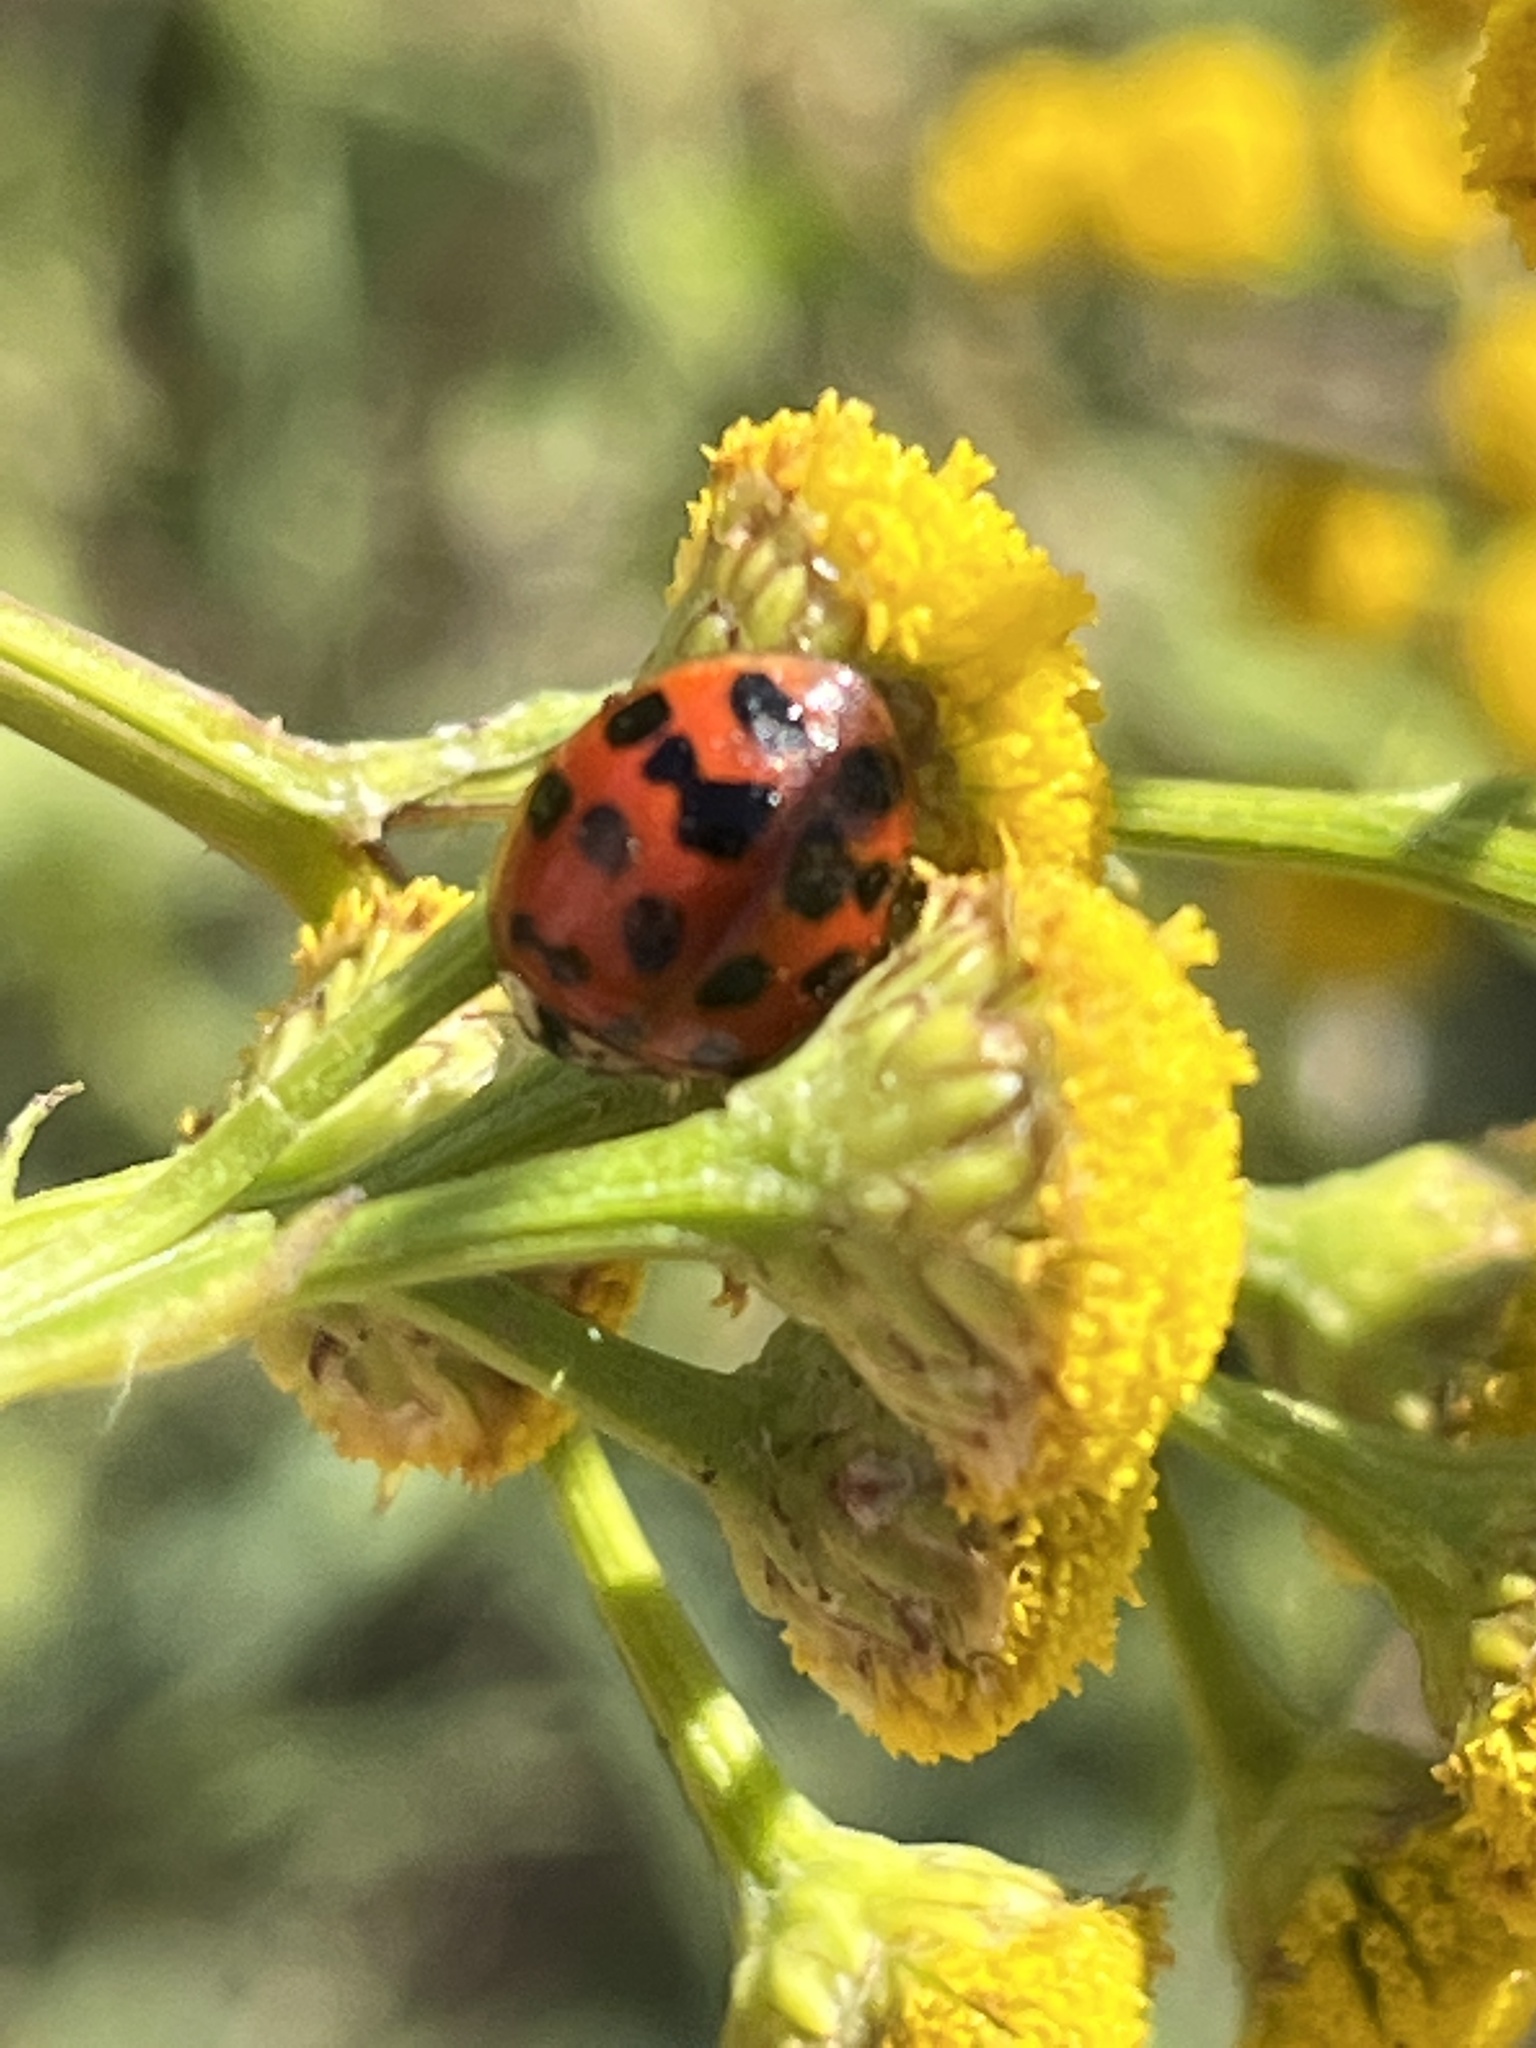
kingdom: Animalia
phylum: Arthropoda
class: Insecta
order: Coleoptera
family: Coccinellidae
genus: Harmonia
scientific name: Harmonia axyridis
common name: Harlequin ladybird
